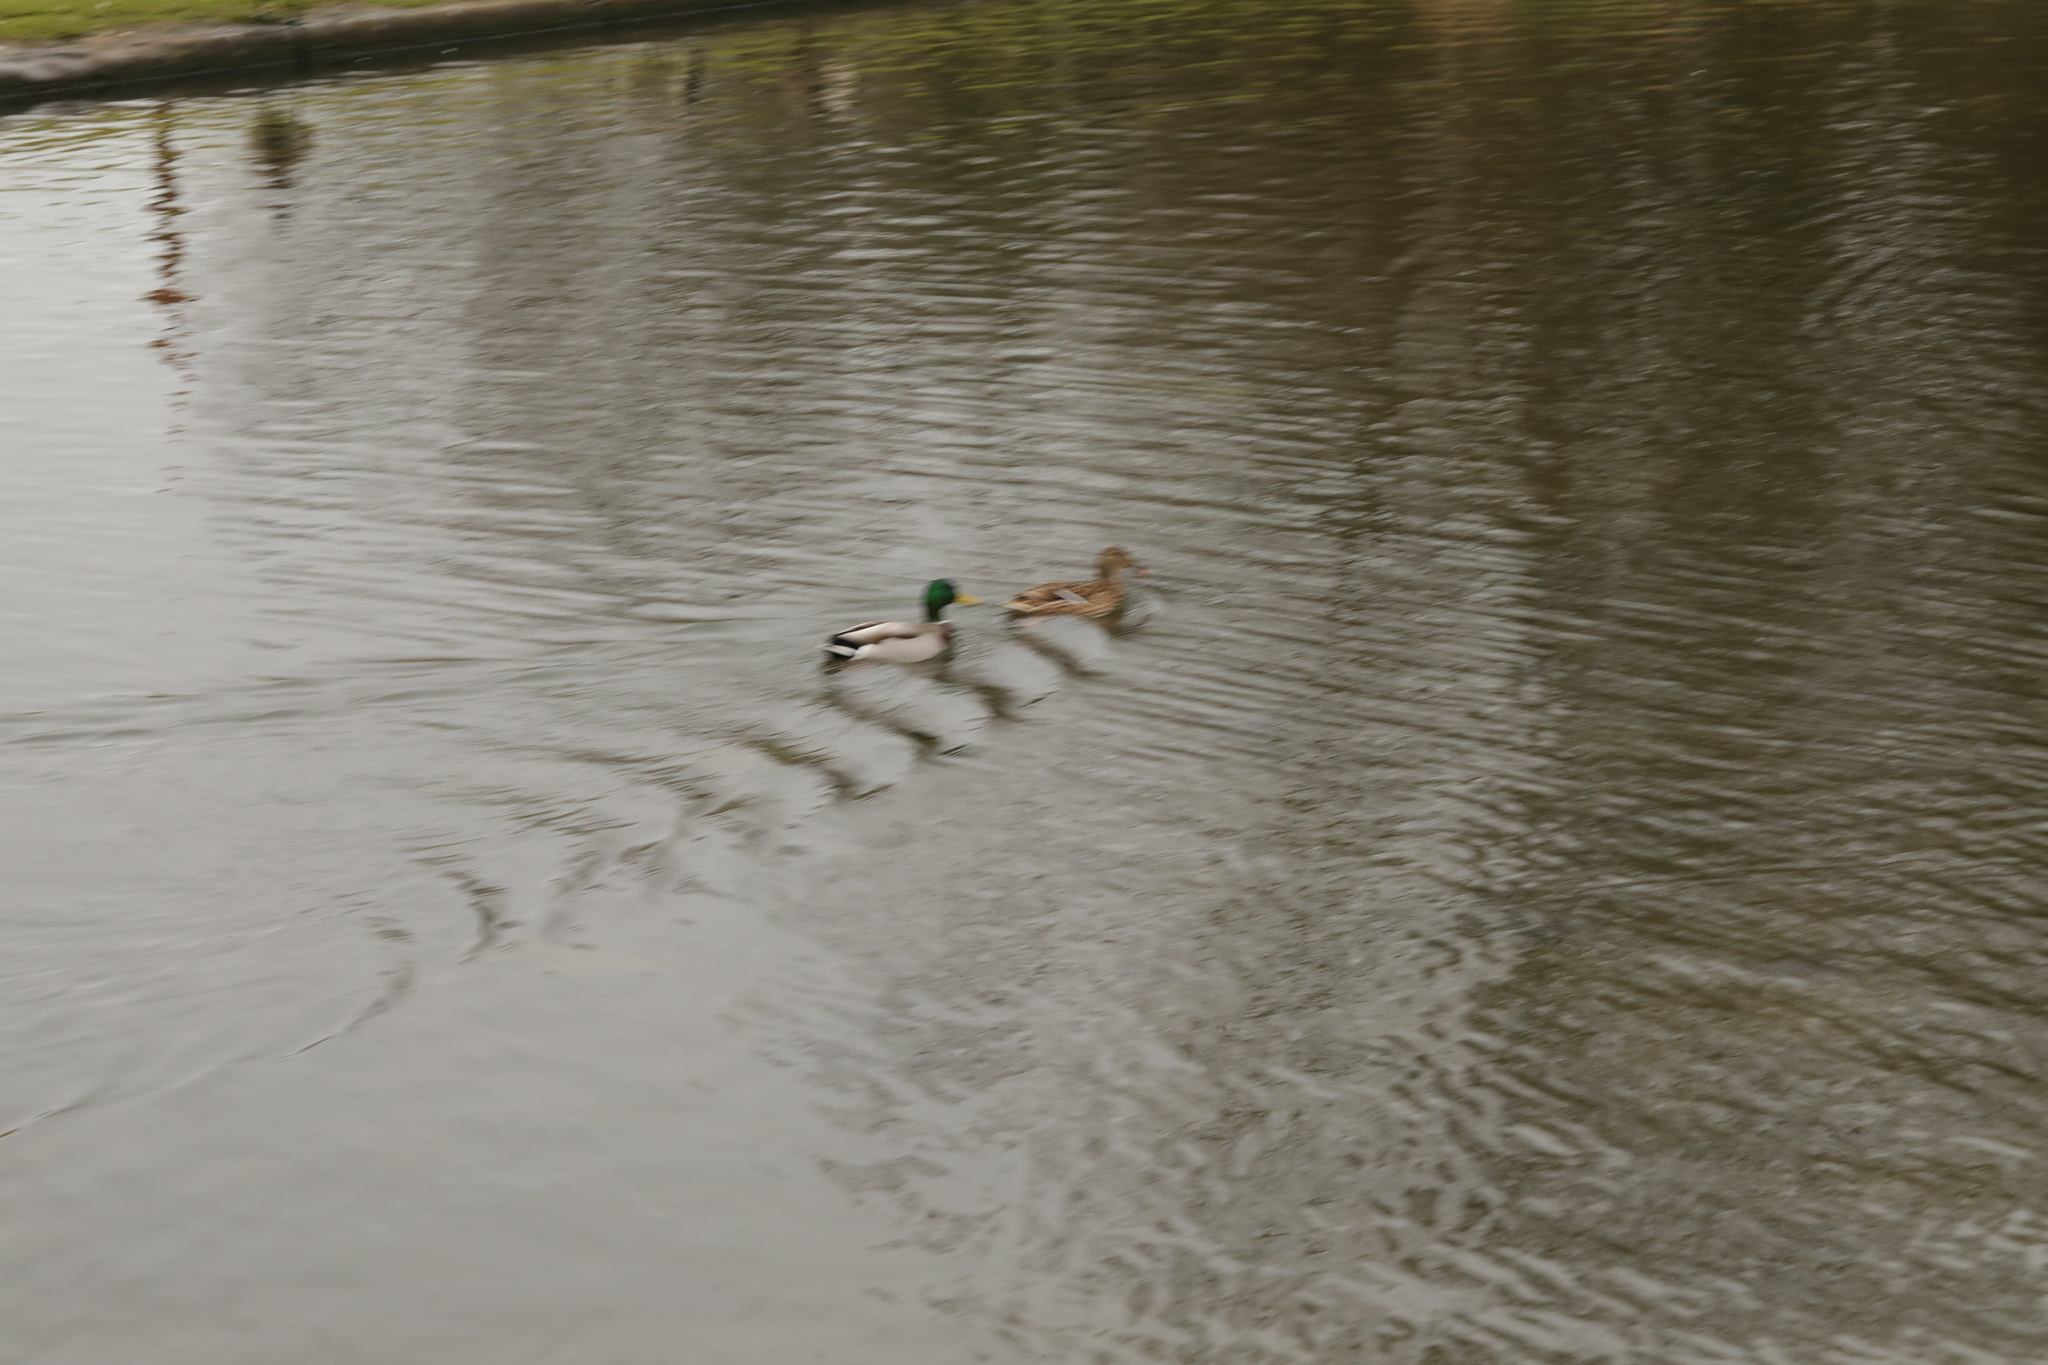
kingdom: Animalia
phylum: Chordata
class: Aves
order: Anseriformes
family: Anatidae
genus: Anas
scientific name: Anas platyrhynchos
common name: Mallard
